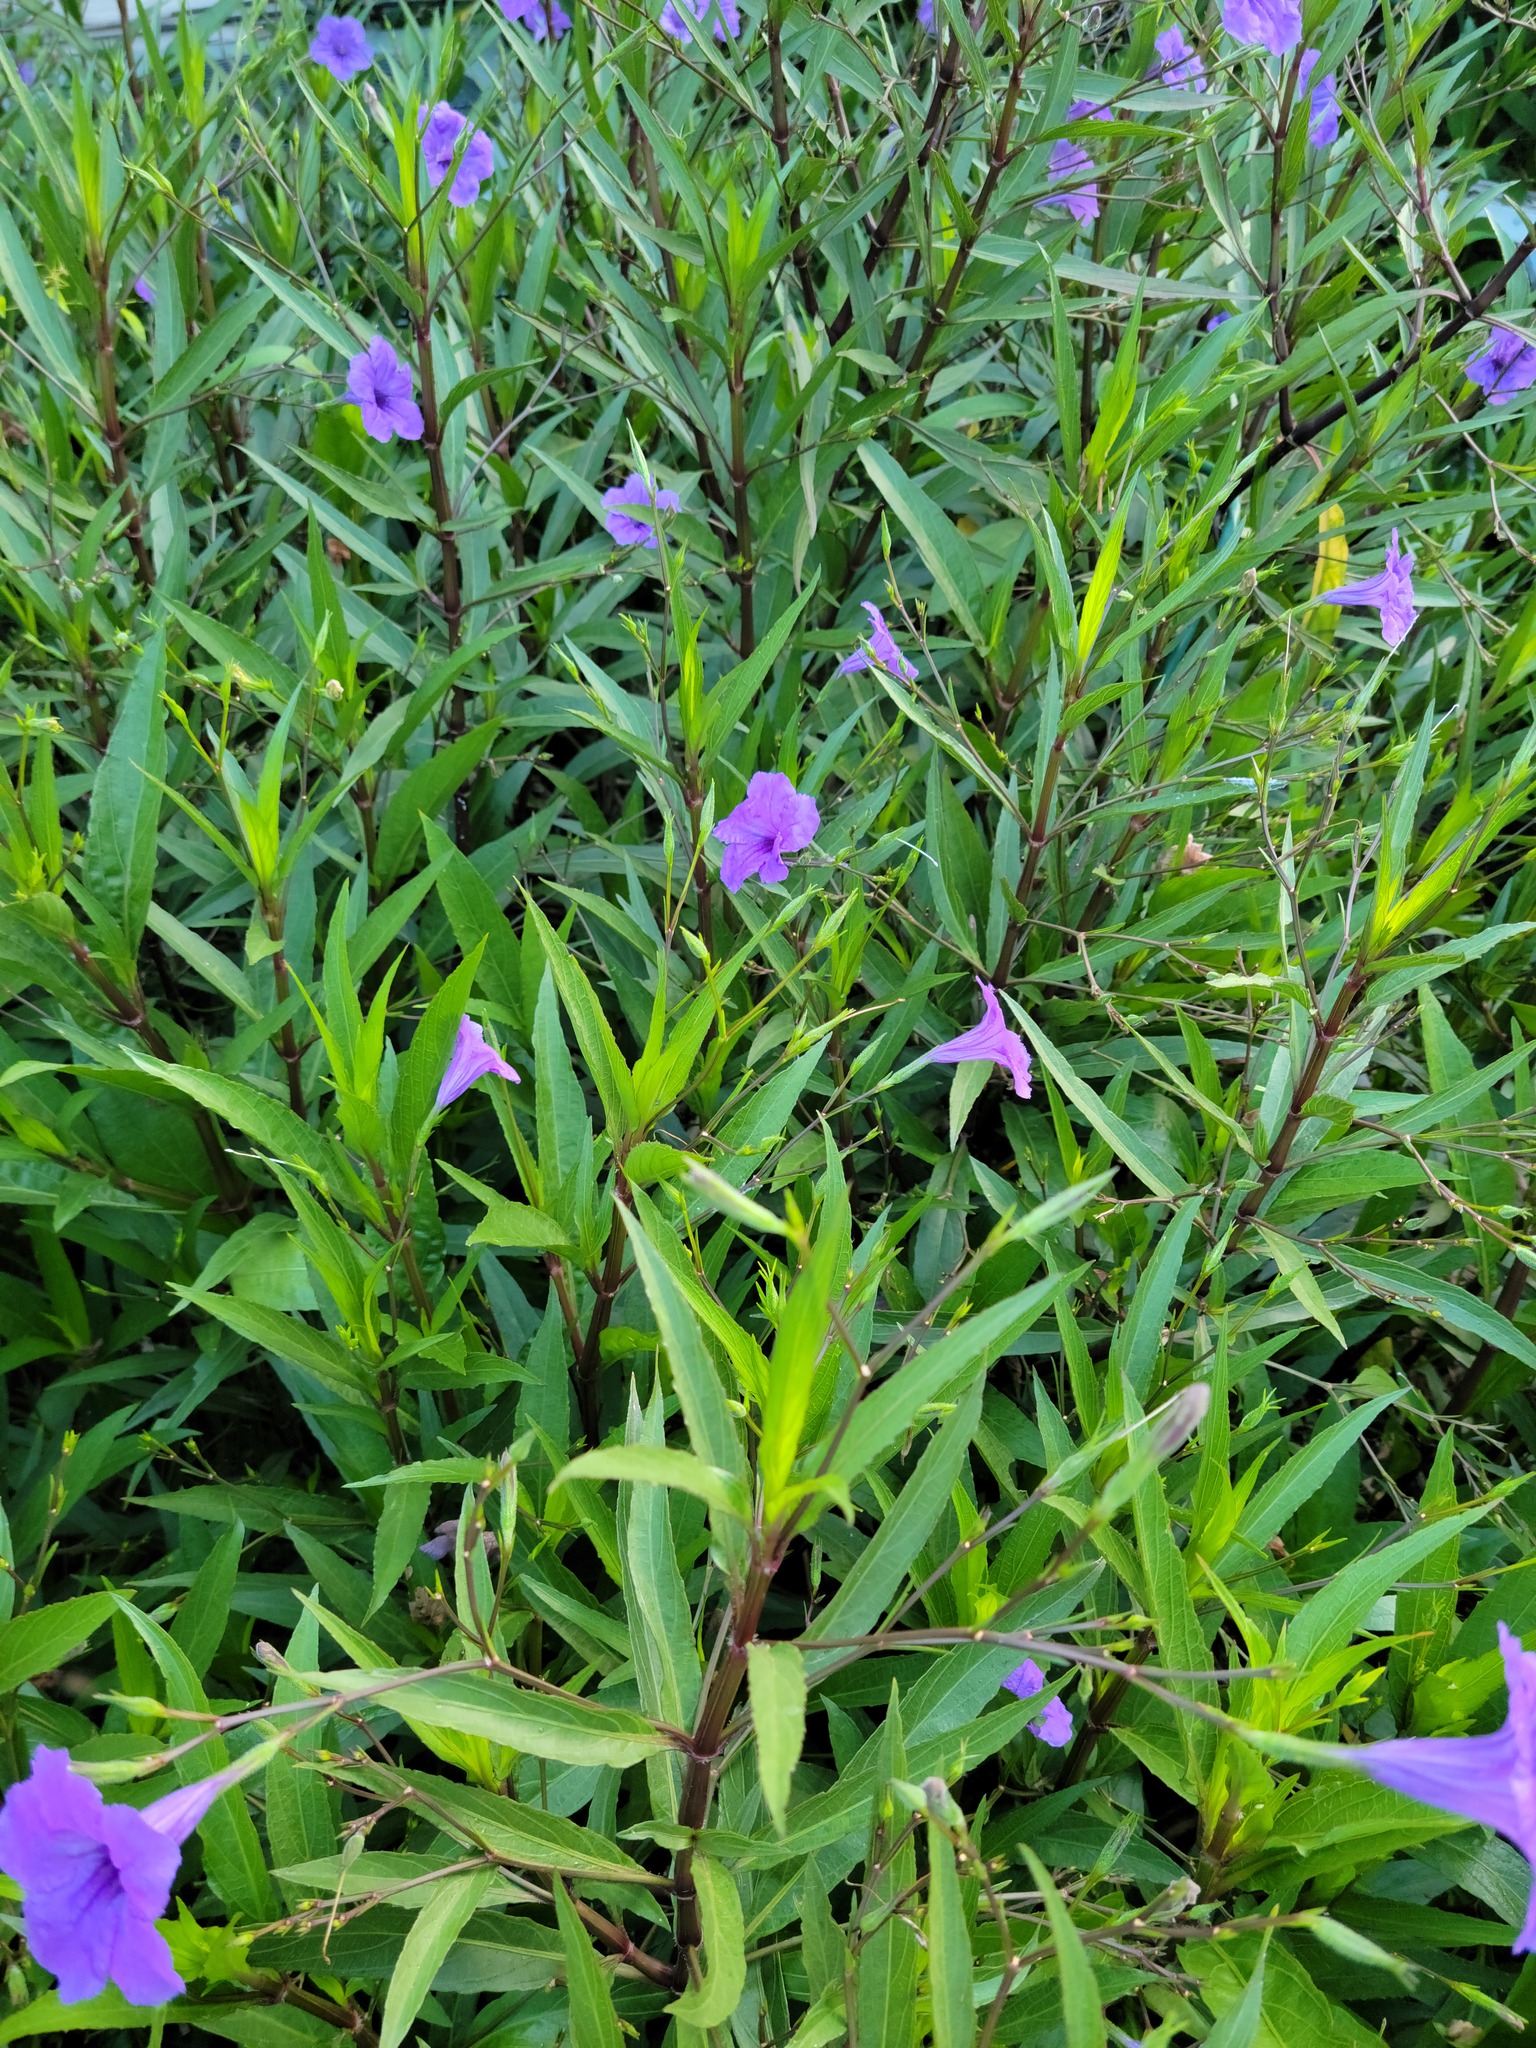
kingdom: Plantae
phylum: Tracheophyta
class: Magnoliopsida
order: Lamiales
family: Acanthaceae
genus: Ruellia
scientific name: Ruellia simplex
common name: Softseed wild petunia
